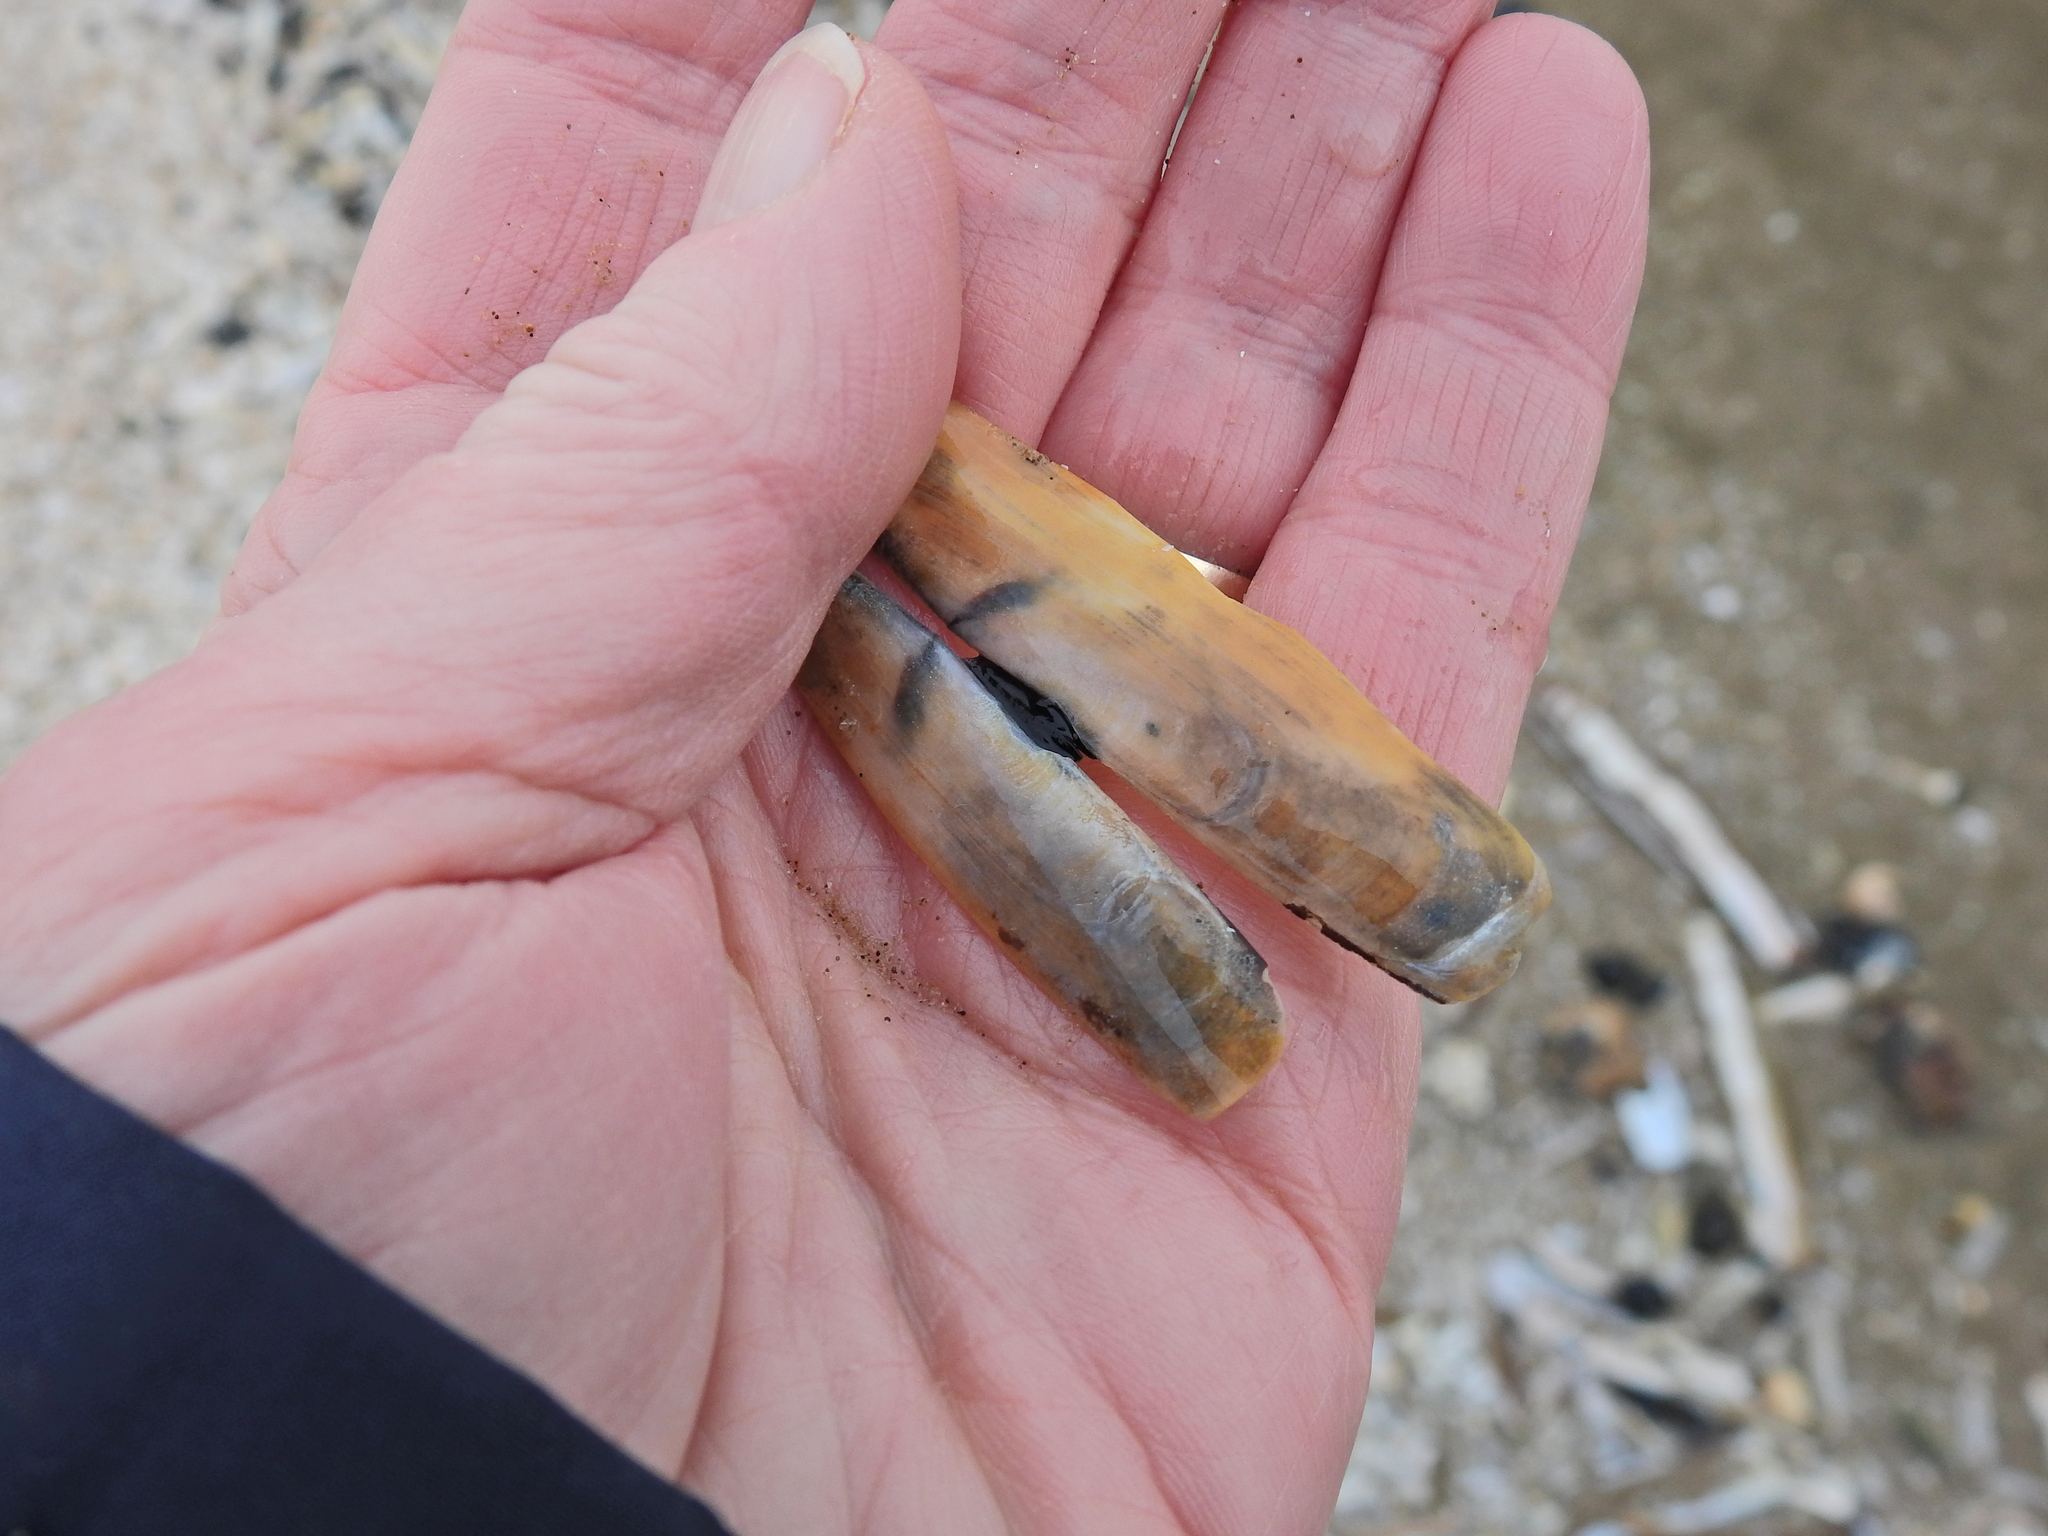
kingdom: Animalia
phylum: Mollusca
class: Bivalvia
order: Adapedonta
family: Pharidae
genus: Pharus
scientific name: Pharus legumen
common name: Bean razor clam
